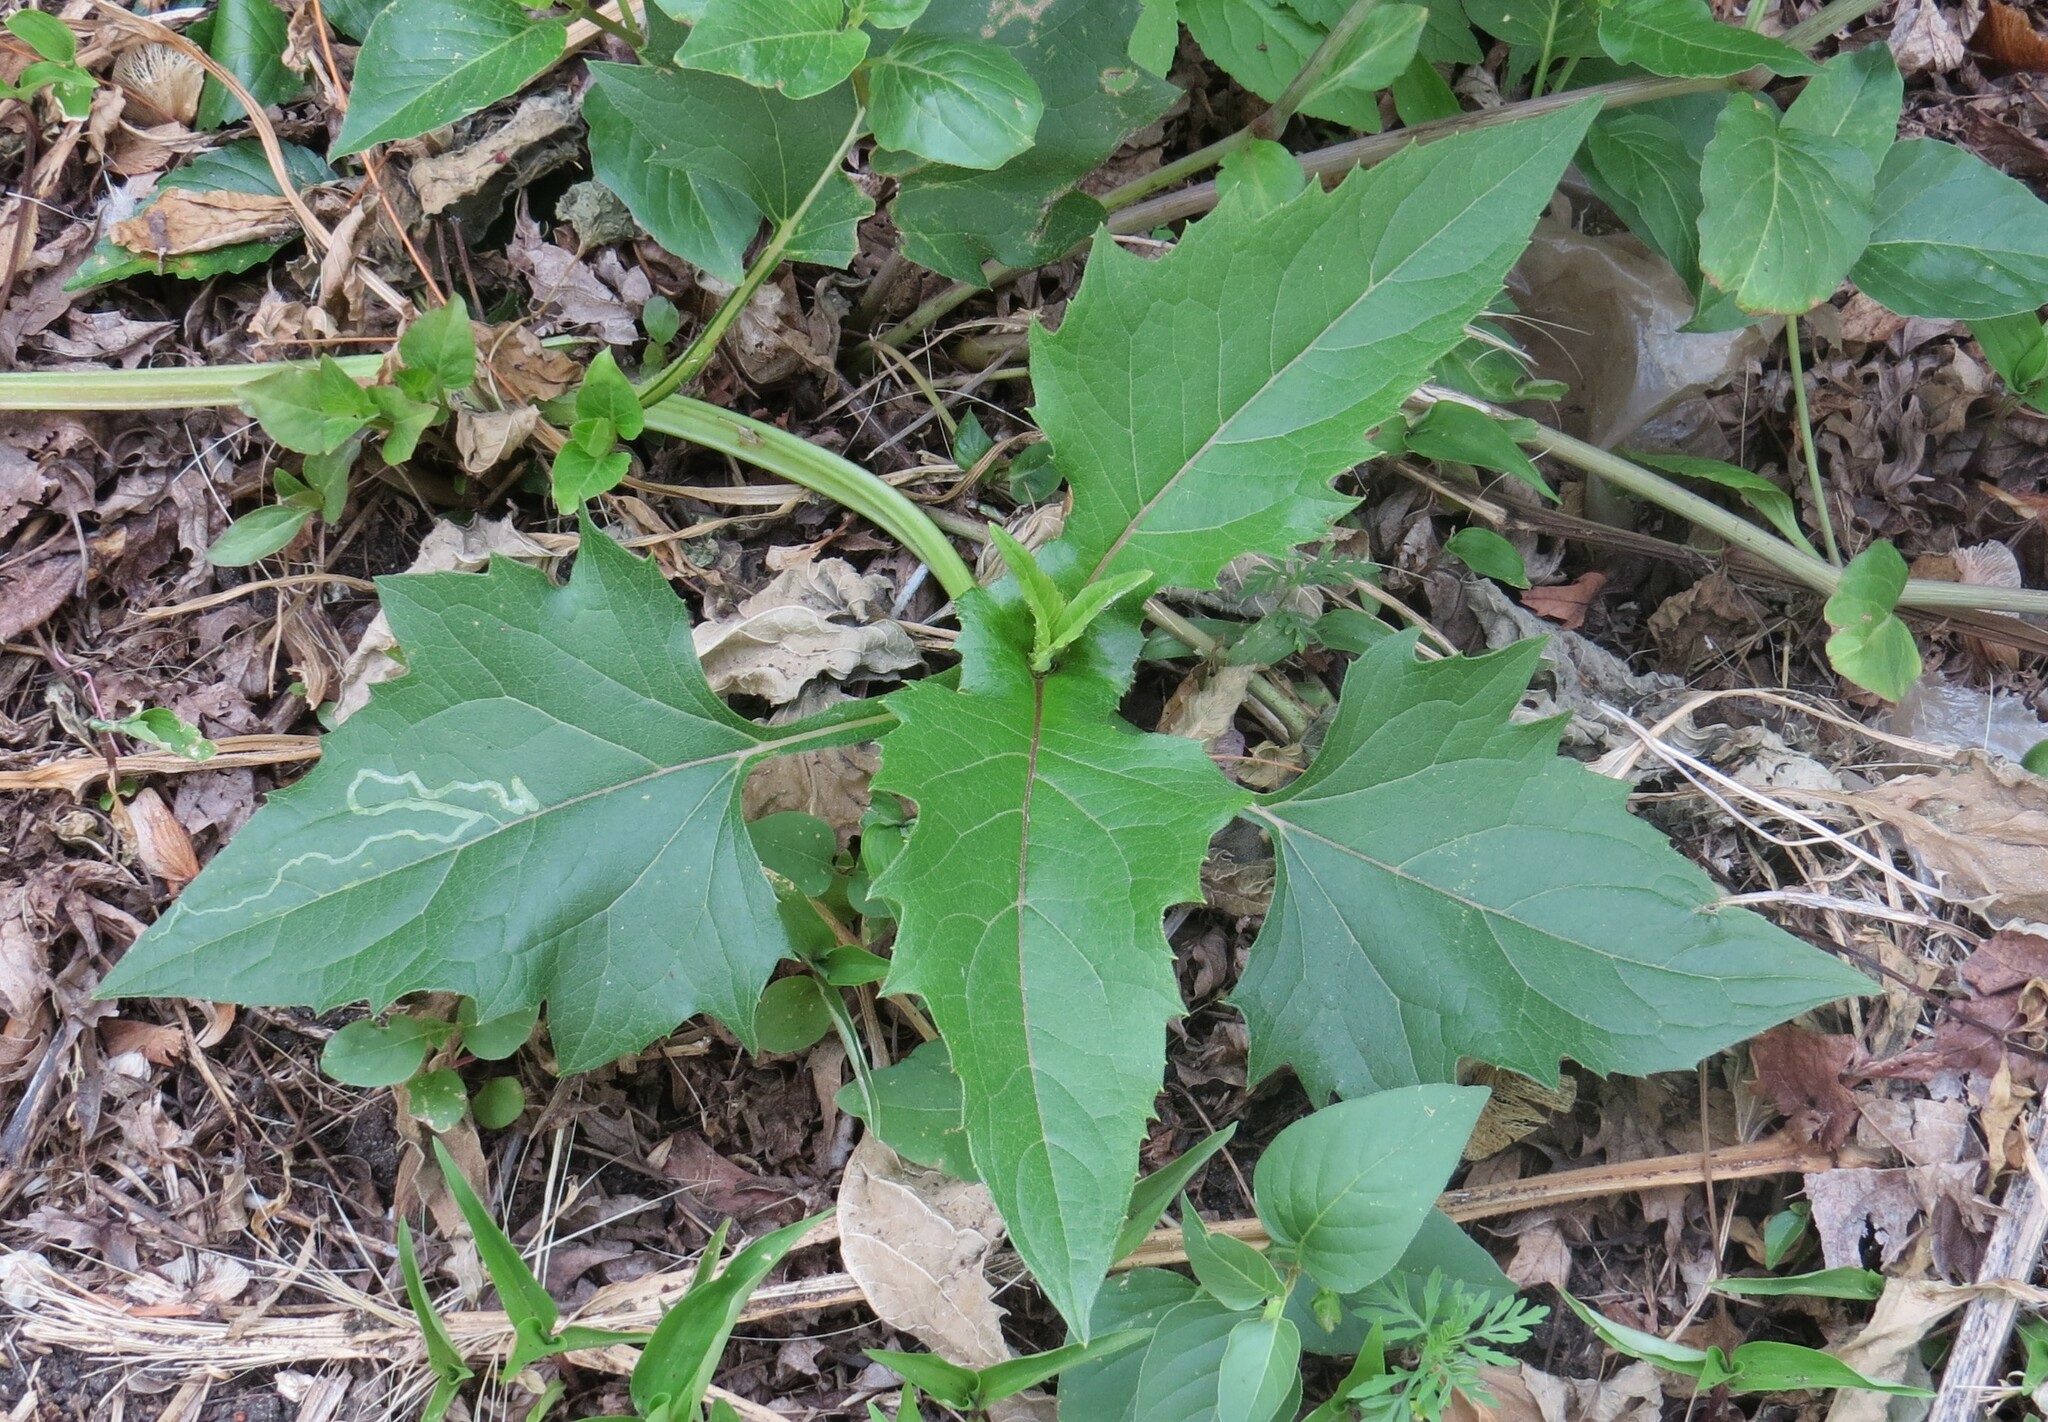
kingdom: Plantae
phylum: Tracheophyta
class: Magnoliopsida
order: Asterales
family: Asteraceae
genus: Silphium
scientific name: Silphium perfoliatum
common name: Cup-plant
